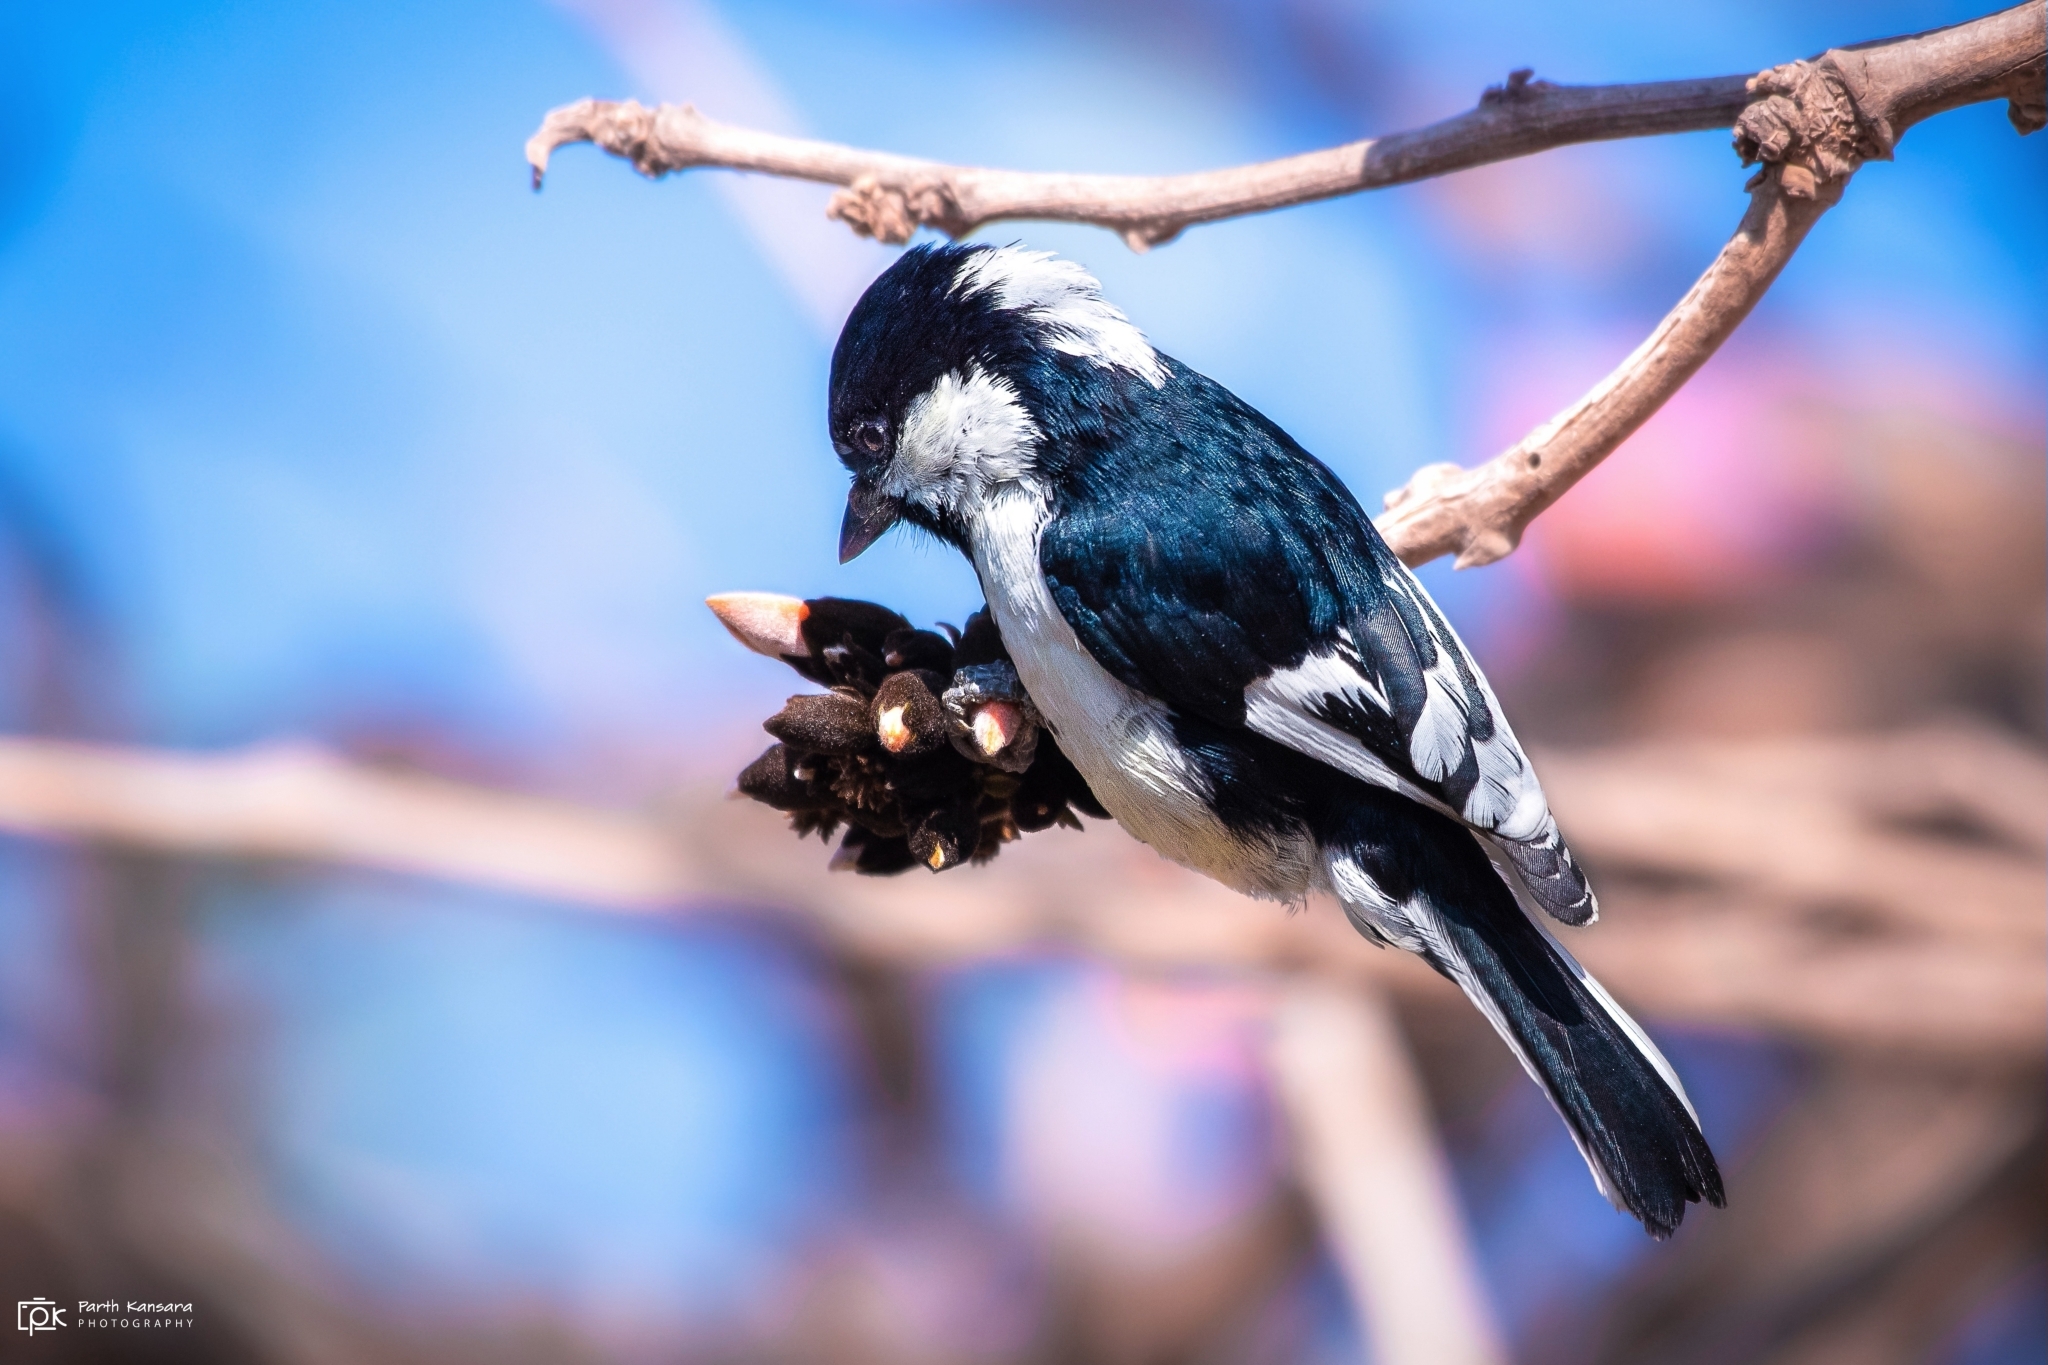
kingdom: Animalia
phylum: Chordata
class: Aves
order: Passeriformes
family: Paridae
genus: Parus
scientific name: Parus nuchalis
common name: White-naped tit
